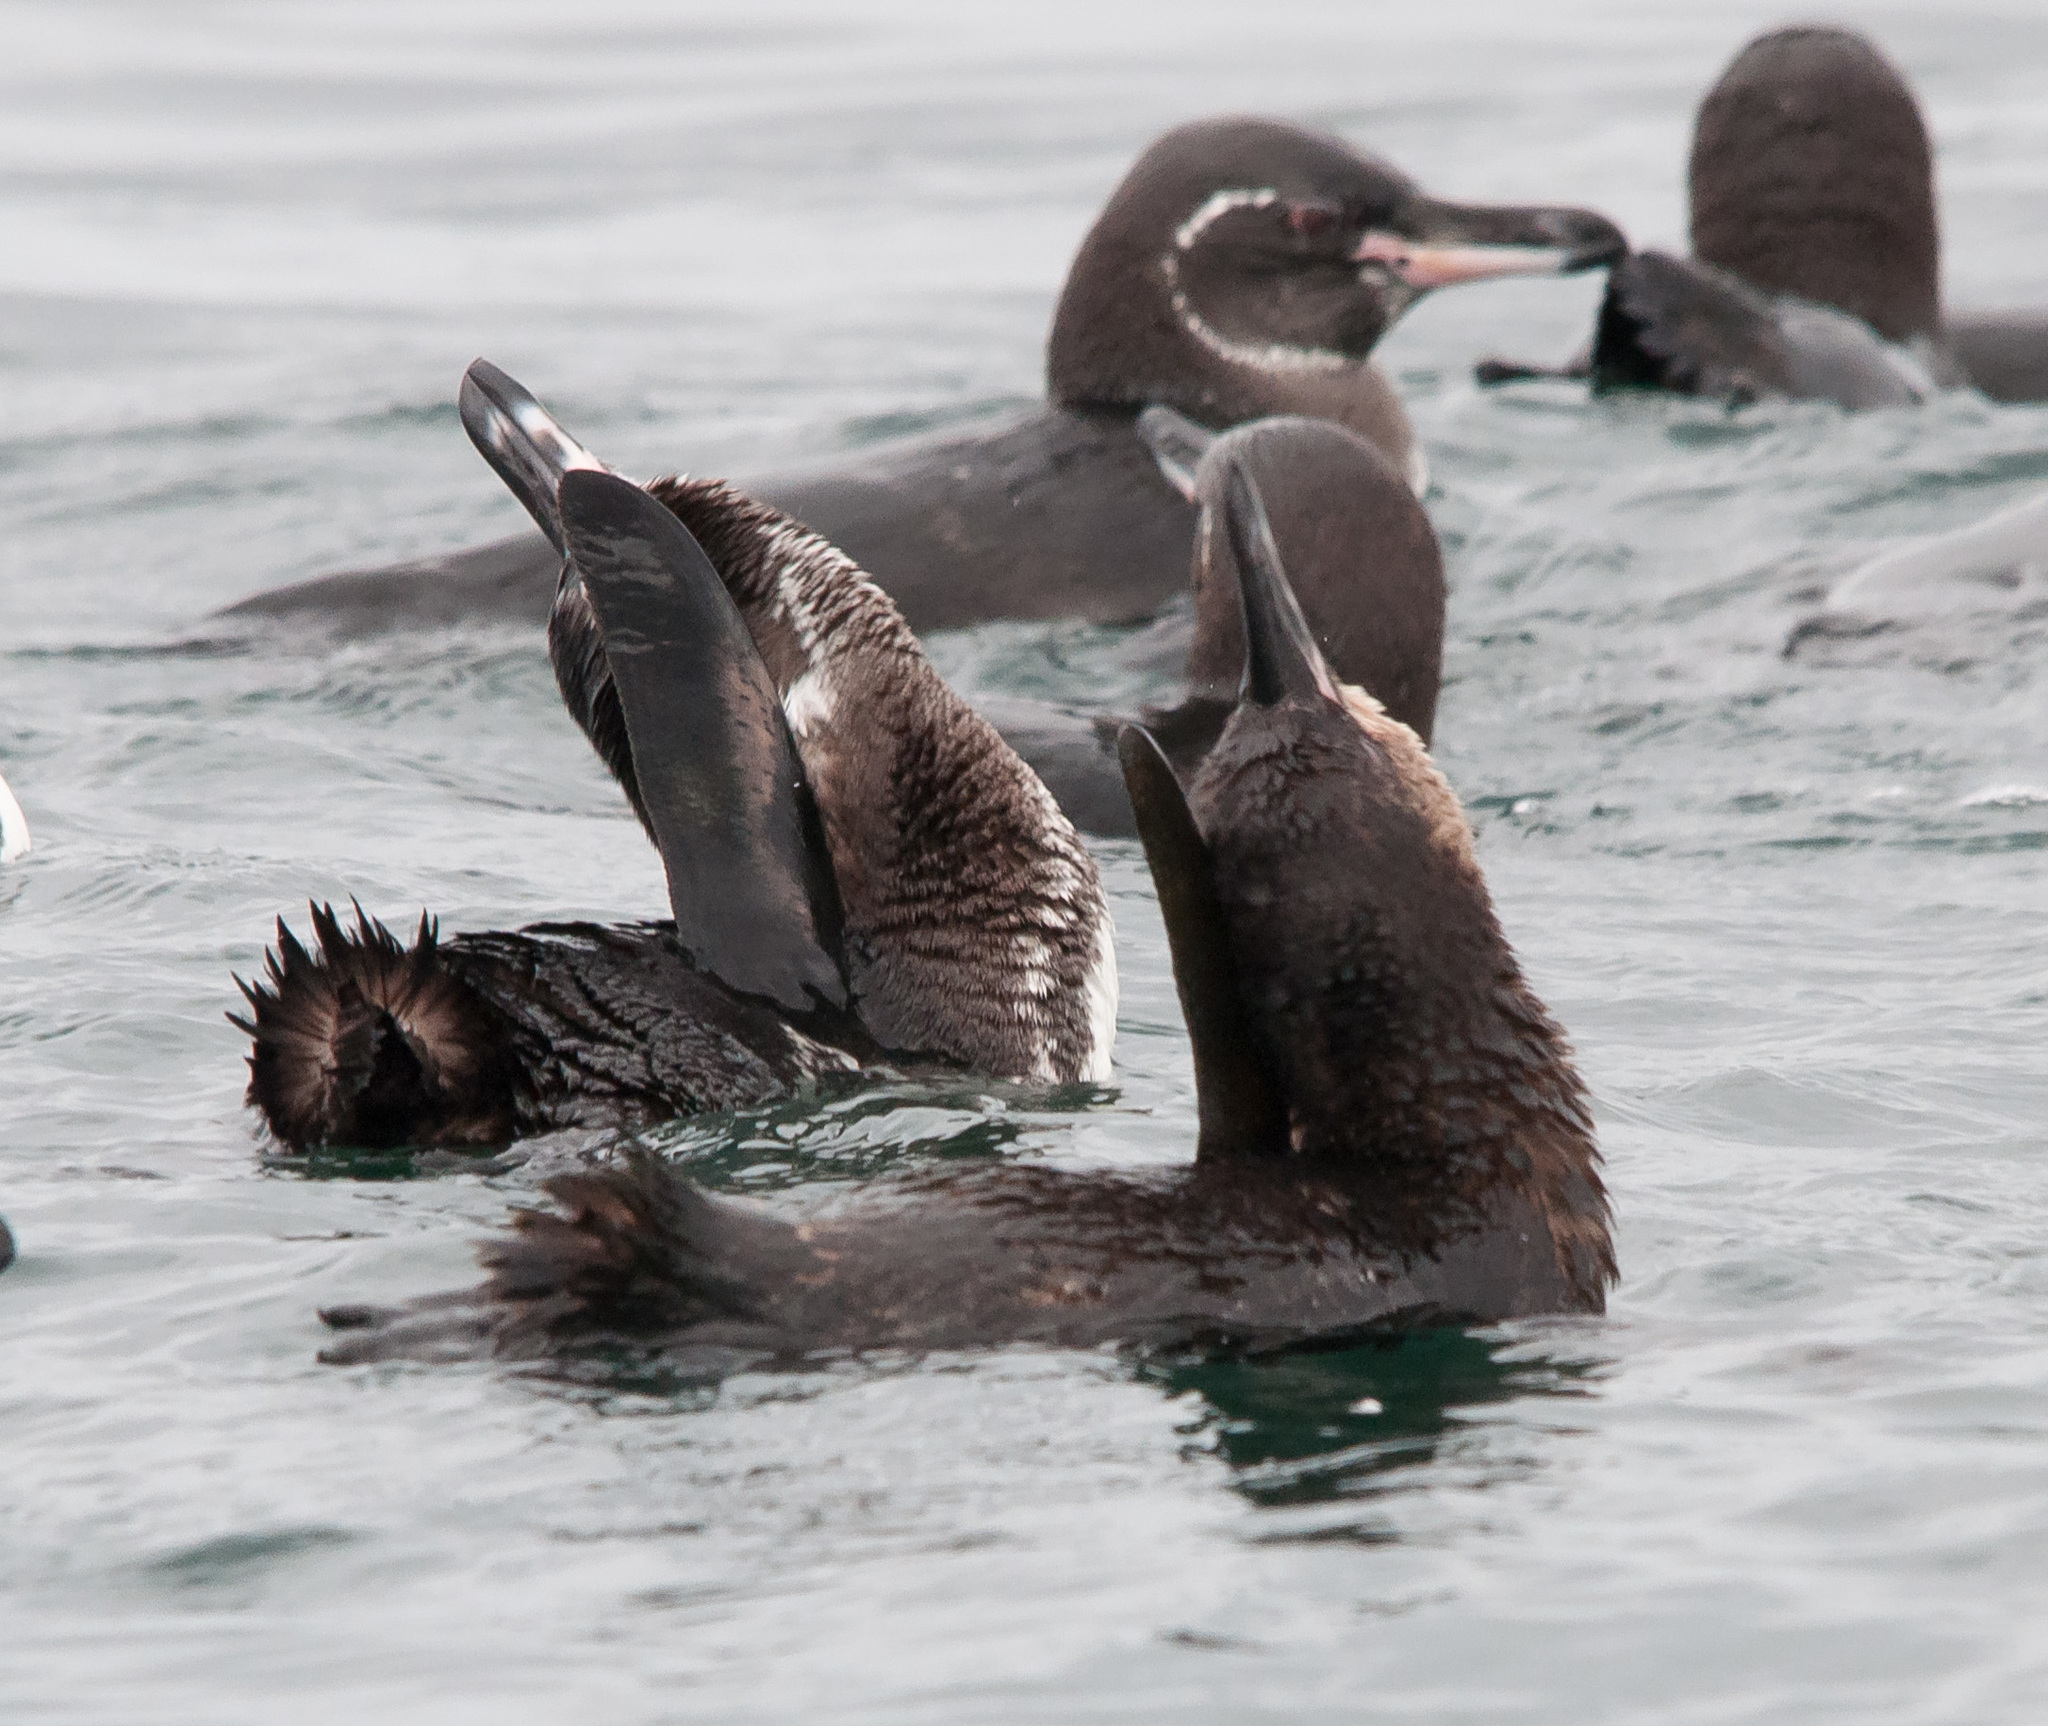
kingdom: Animalia
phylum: Chordata
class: Aves
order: Sphenisciformes
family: Spheniscidae
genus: Spheniscus
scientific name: Spheniscus mendiculus
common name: Galapagos penguin
